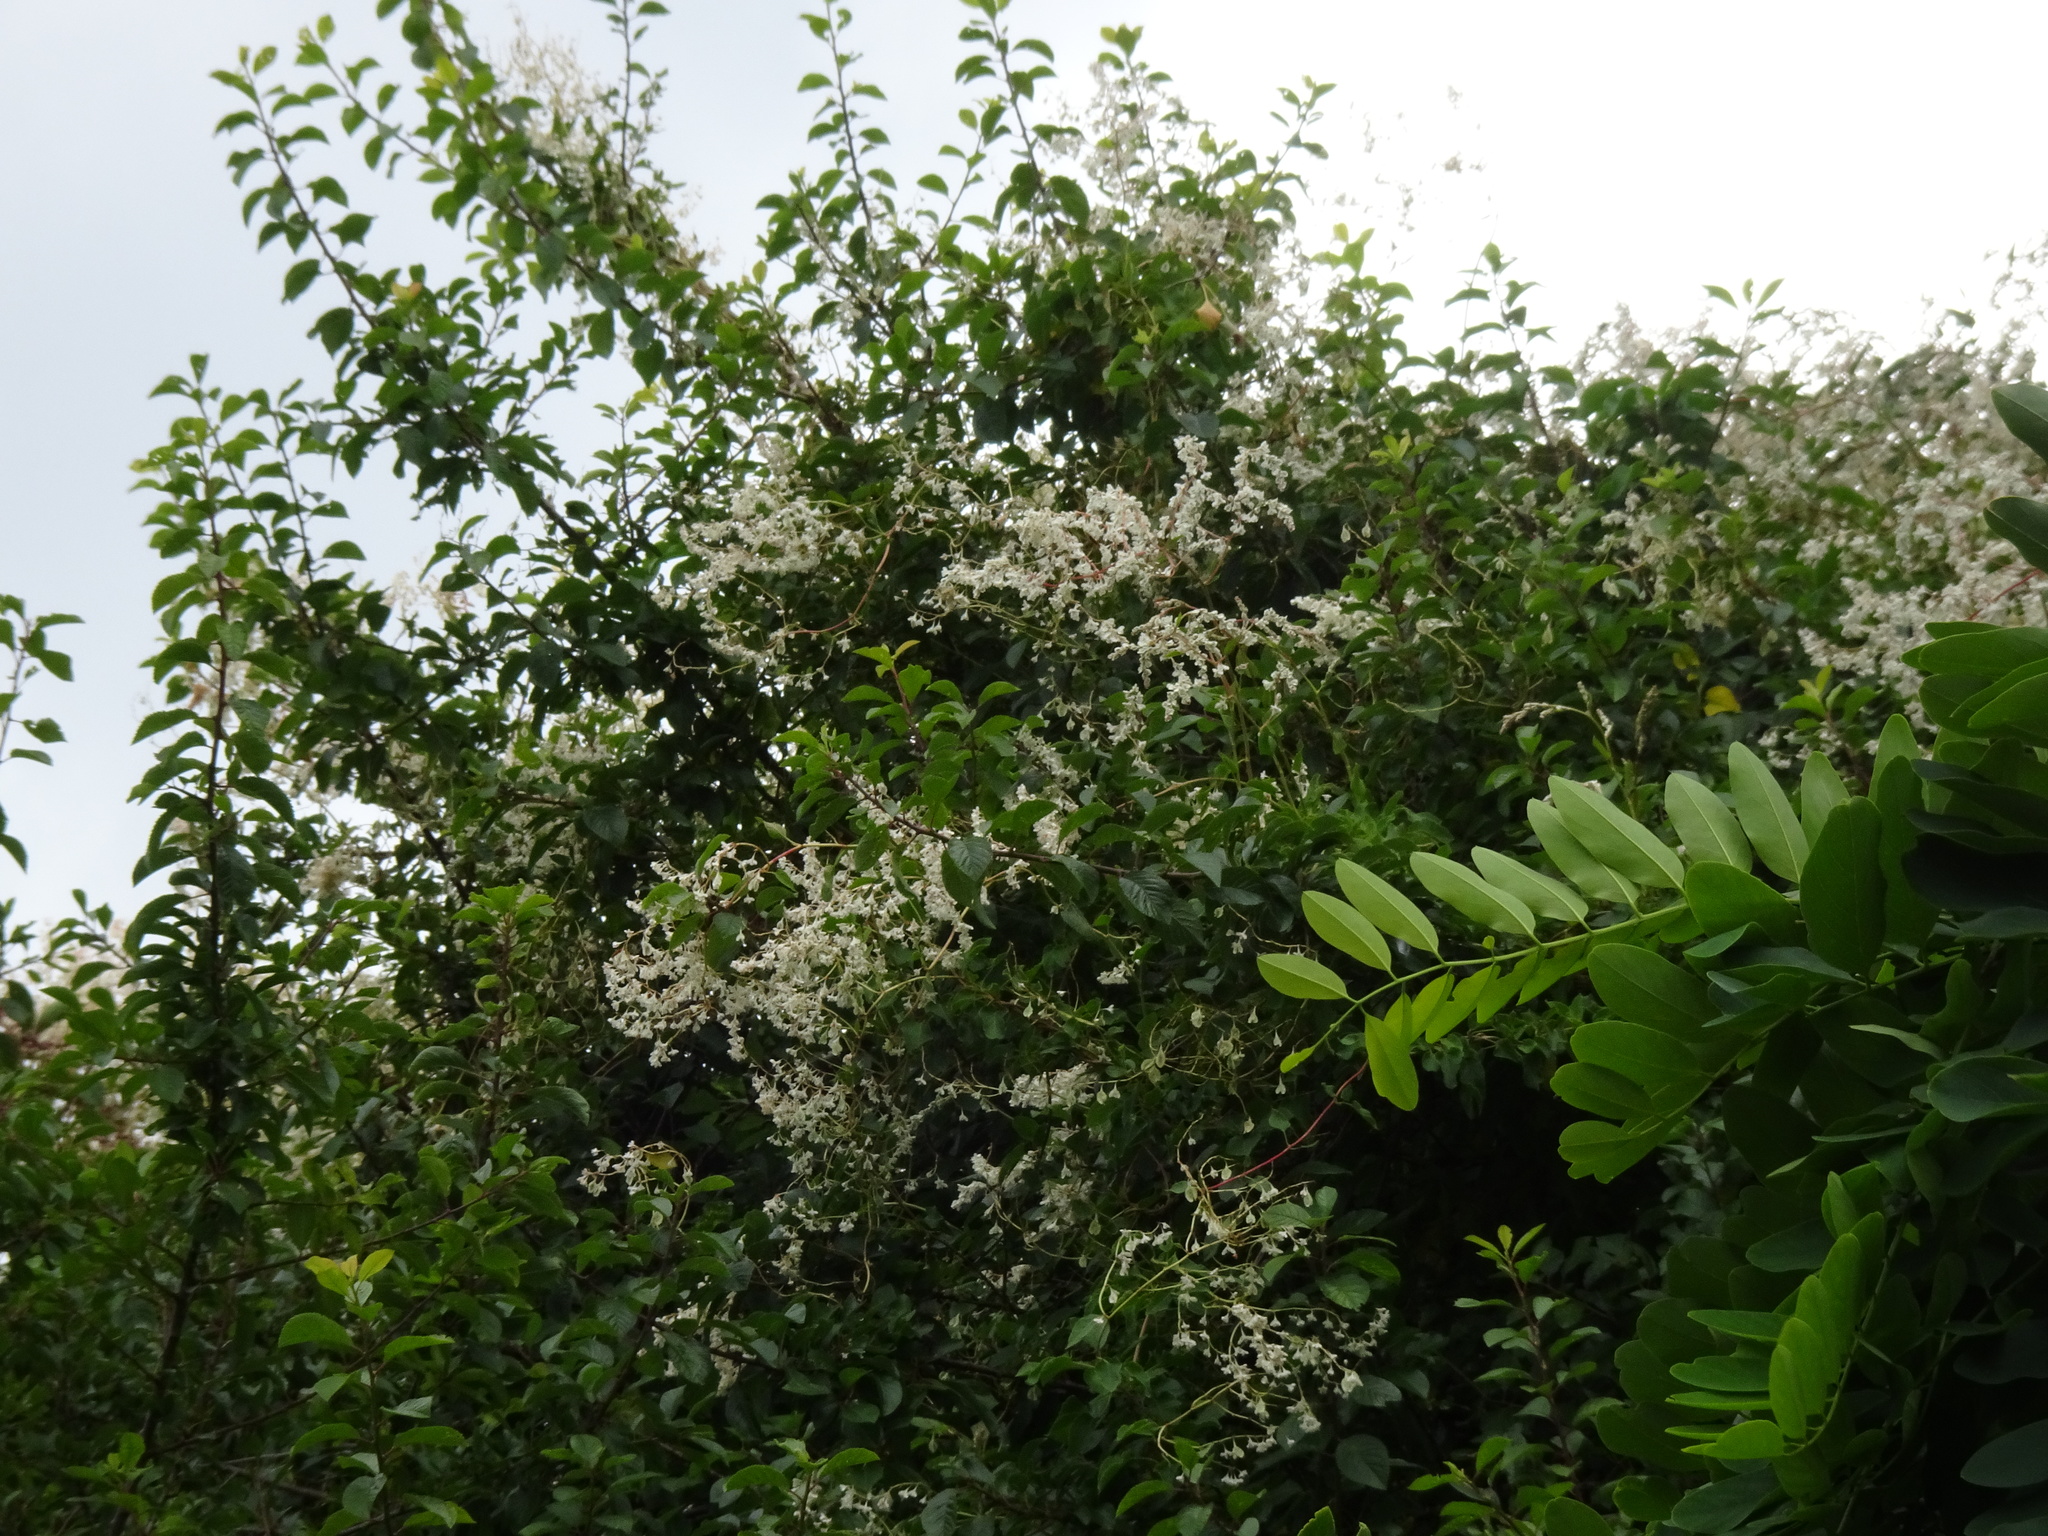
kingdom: Plantae
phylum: Tracheophyta
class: Magnoliopsida
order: Caryophyllales
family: Polygonaceae
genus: Fallopia
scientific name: Fallopia baldschuanica
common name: Russian-vine
